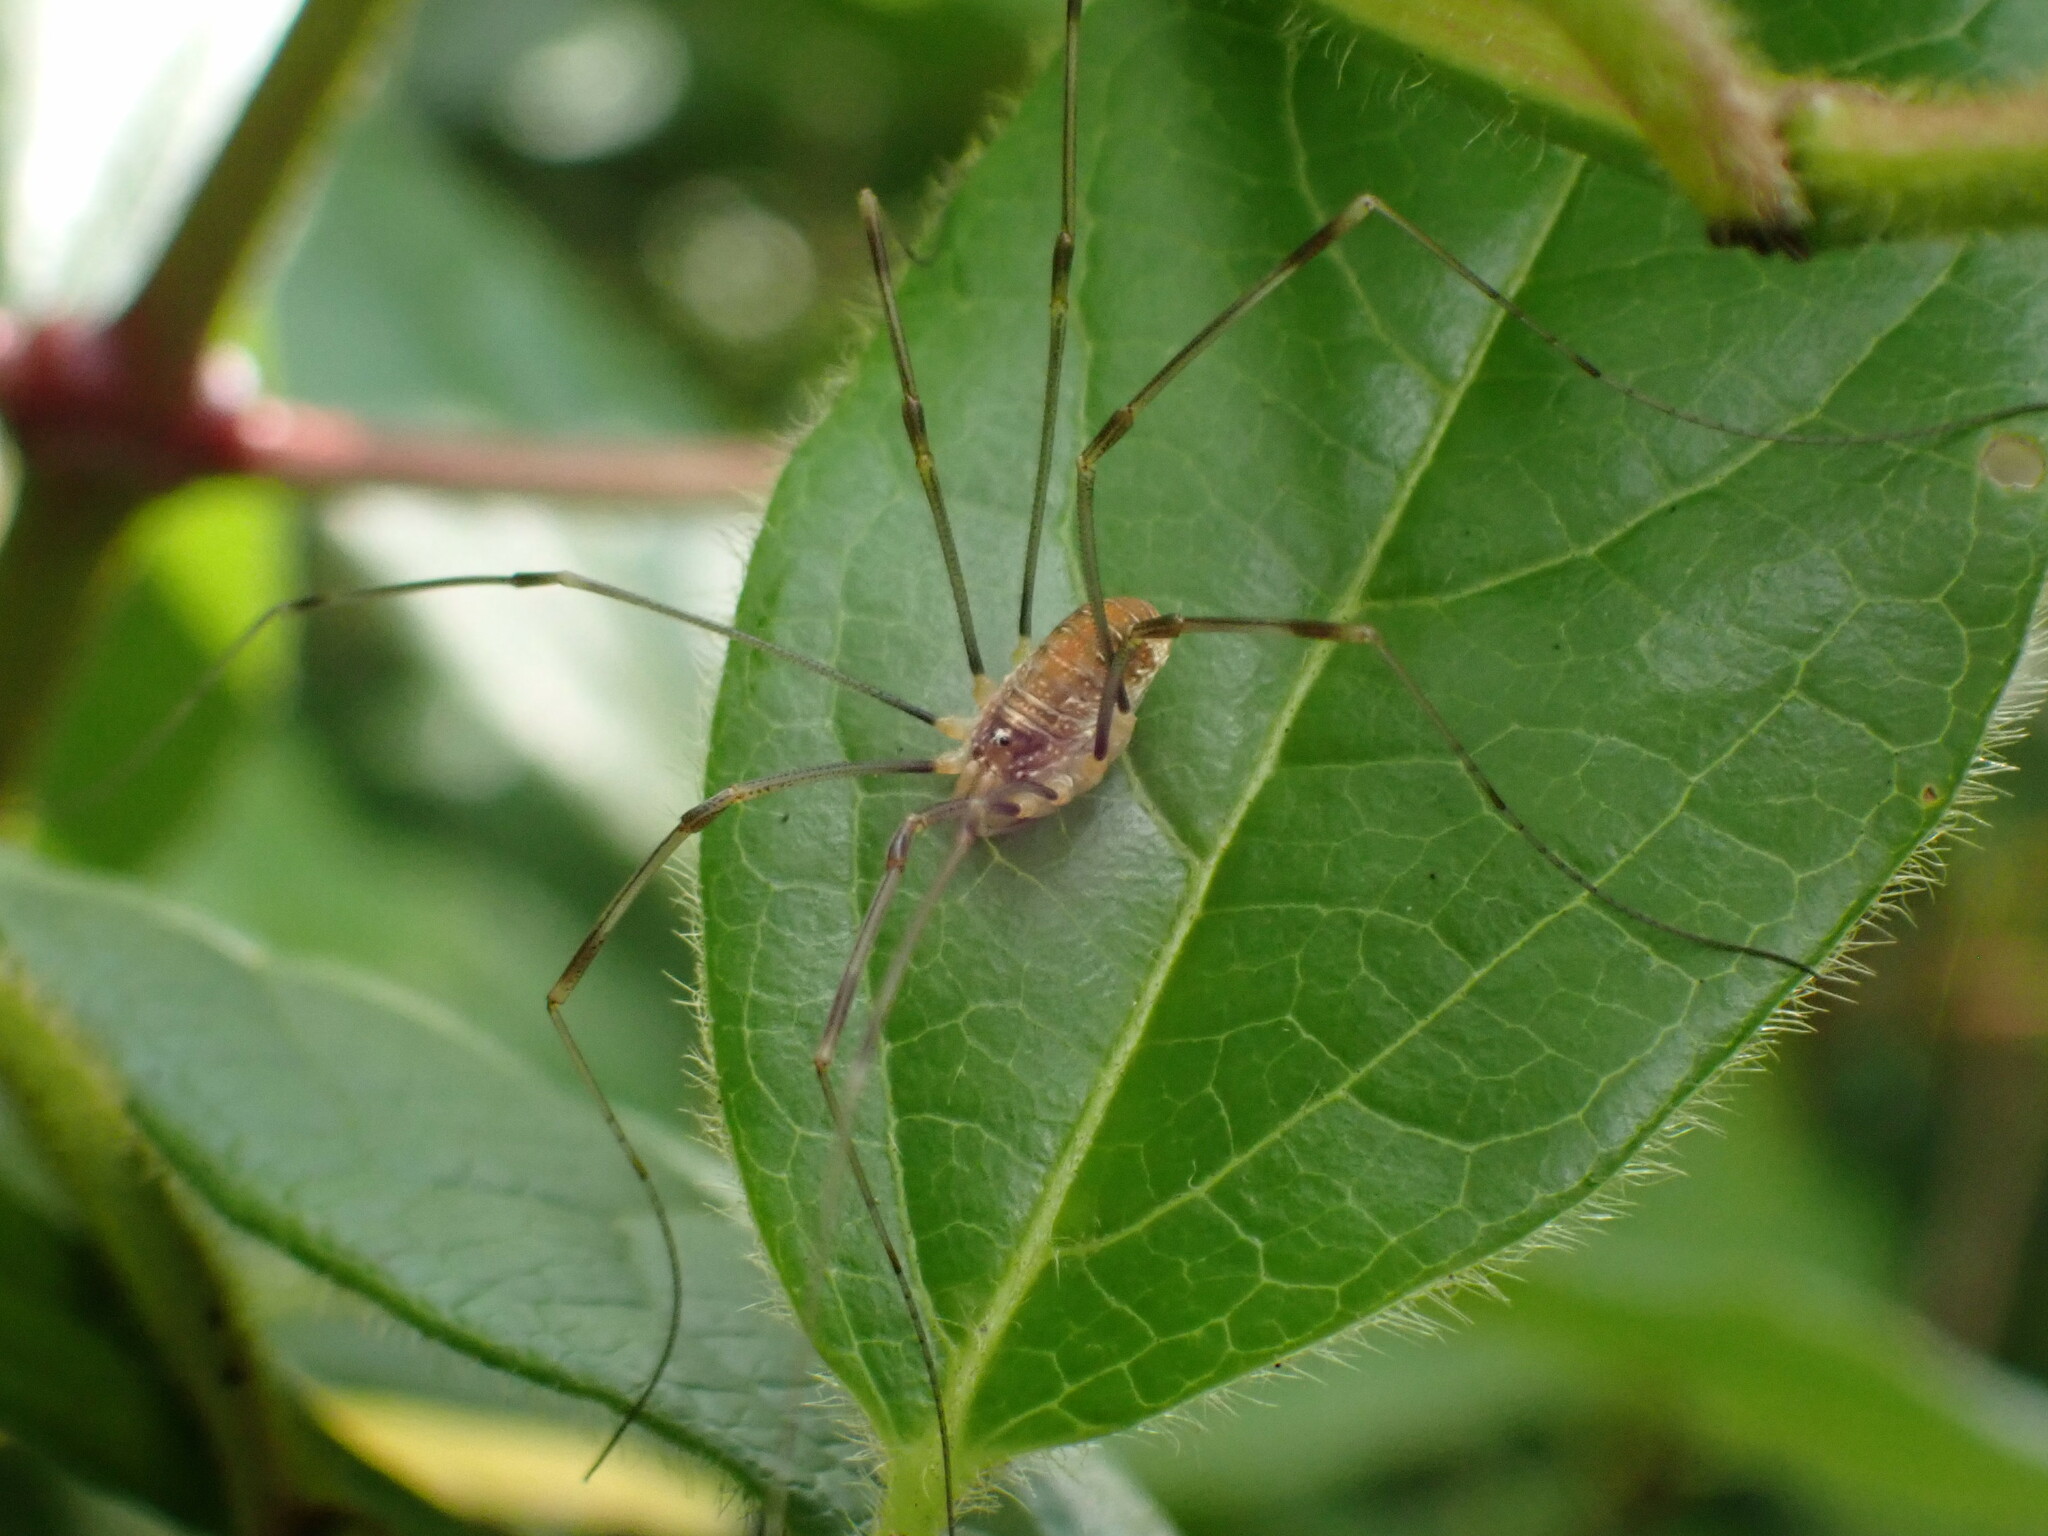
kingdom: Animalia
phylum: Arthropoda
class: Arachnida
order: Opiliones
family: Phalangiidae
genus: Opilio
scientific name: Opilio canestrinii
